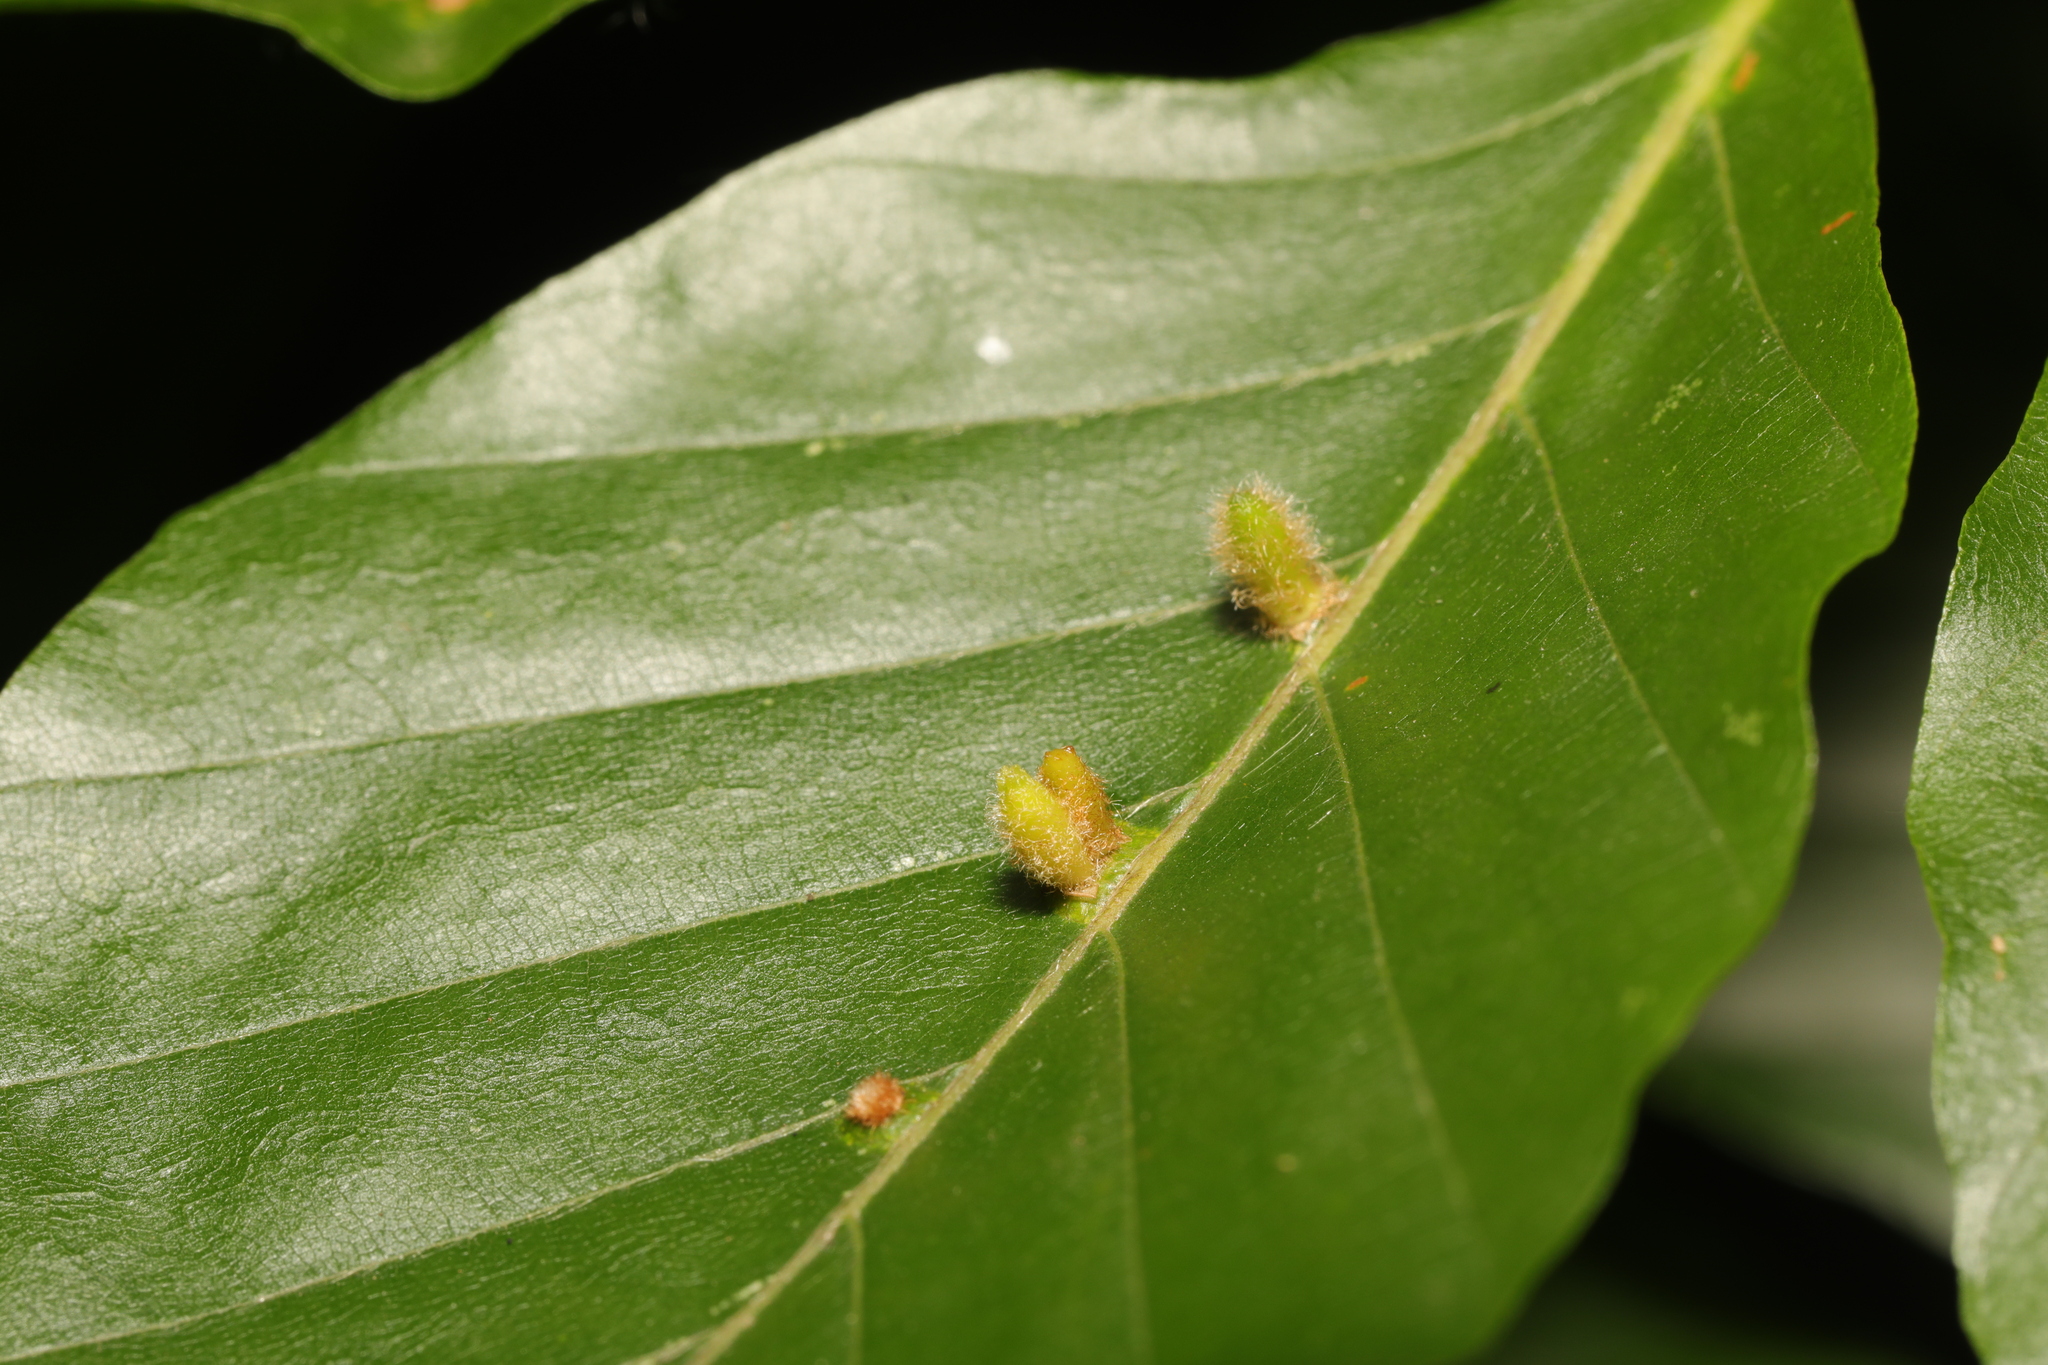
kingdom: Animalia
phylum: Arthropoda
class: Insecta
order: Diptera
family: Cecidomyiidae
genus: Hartigiola
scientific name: Hartigiola annulipes
